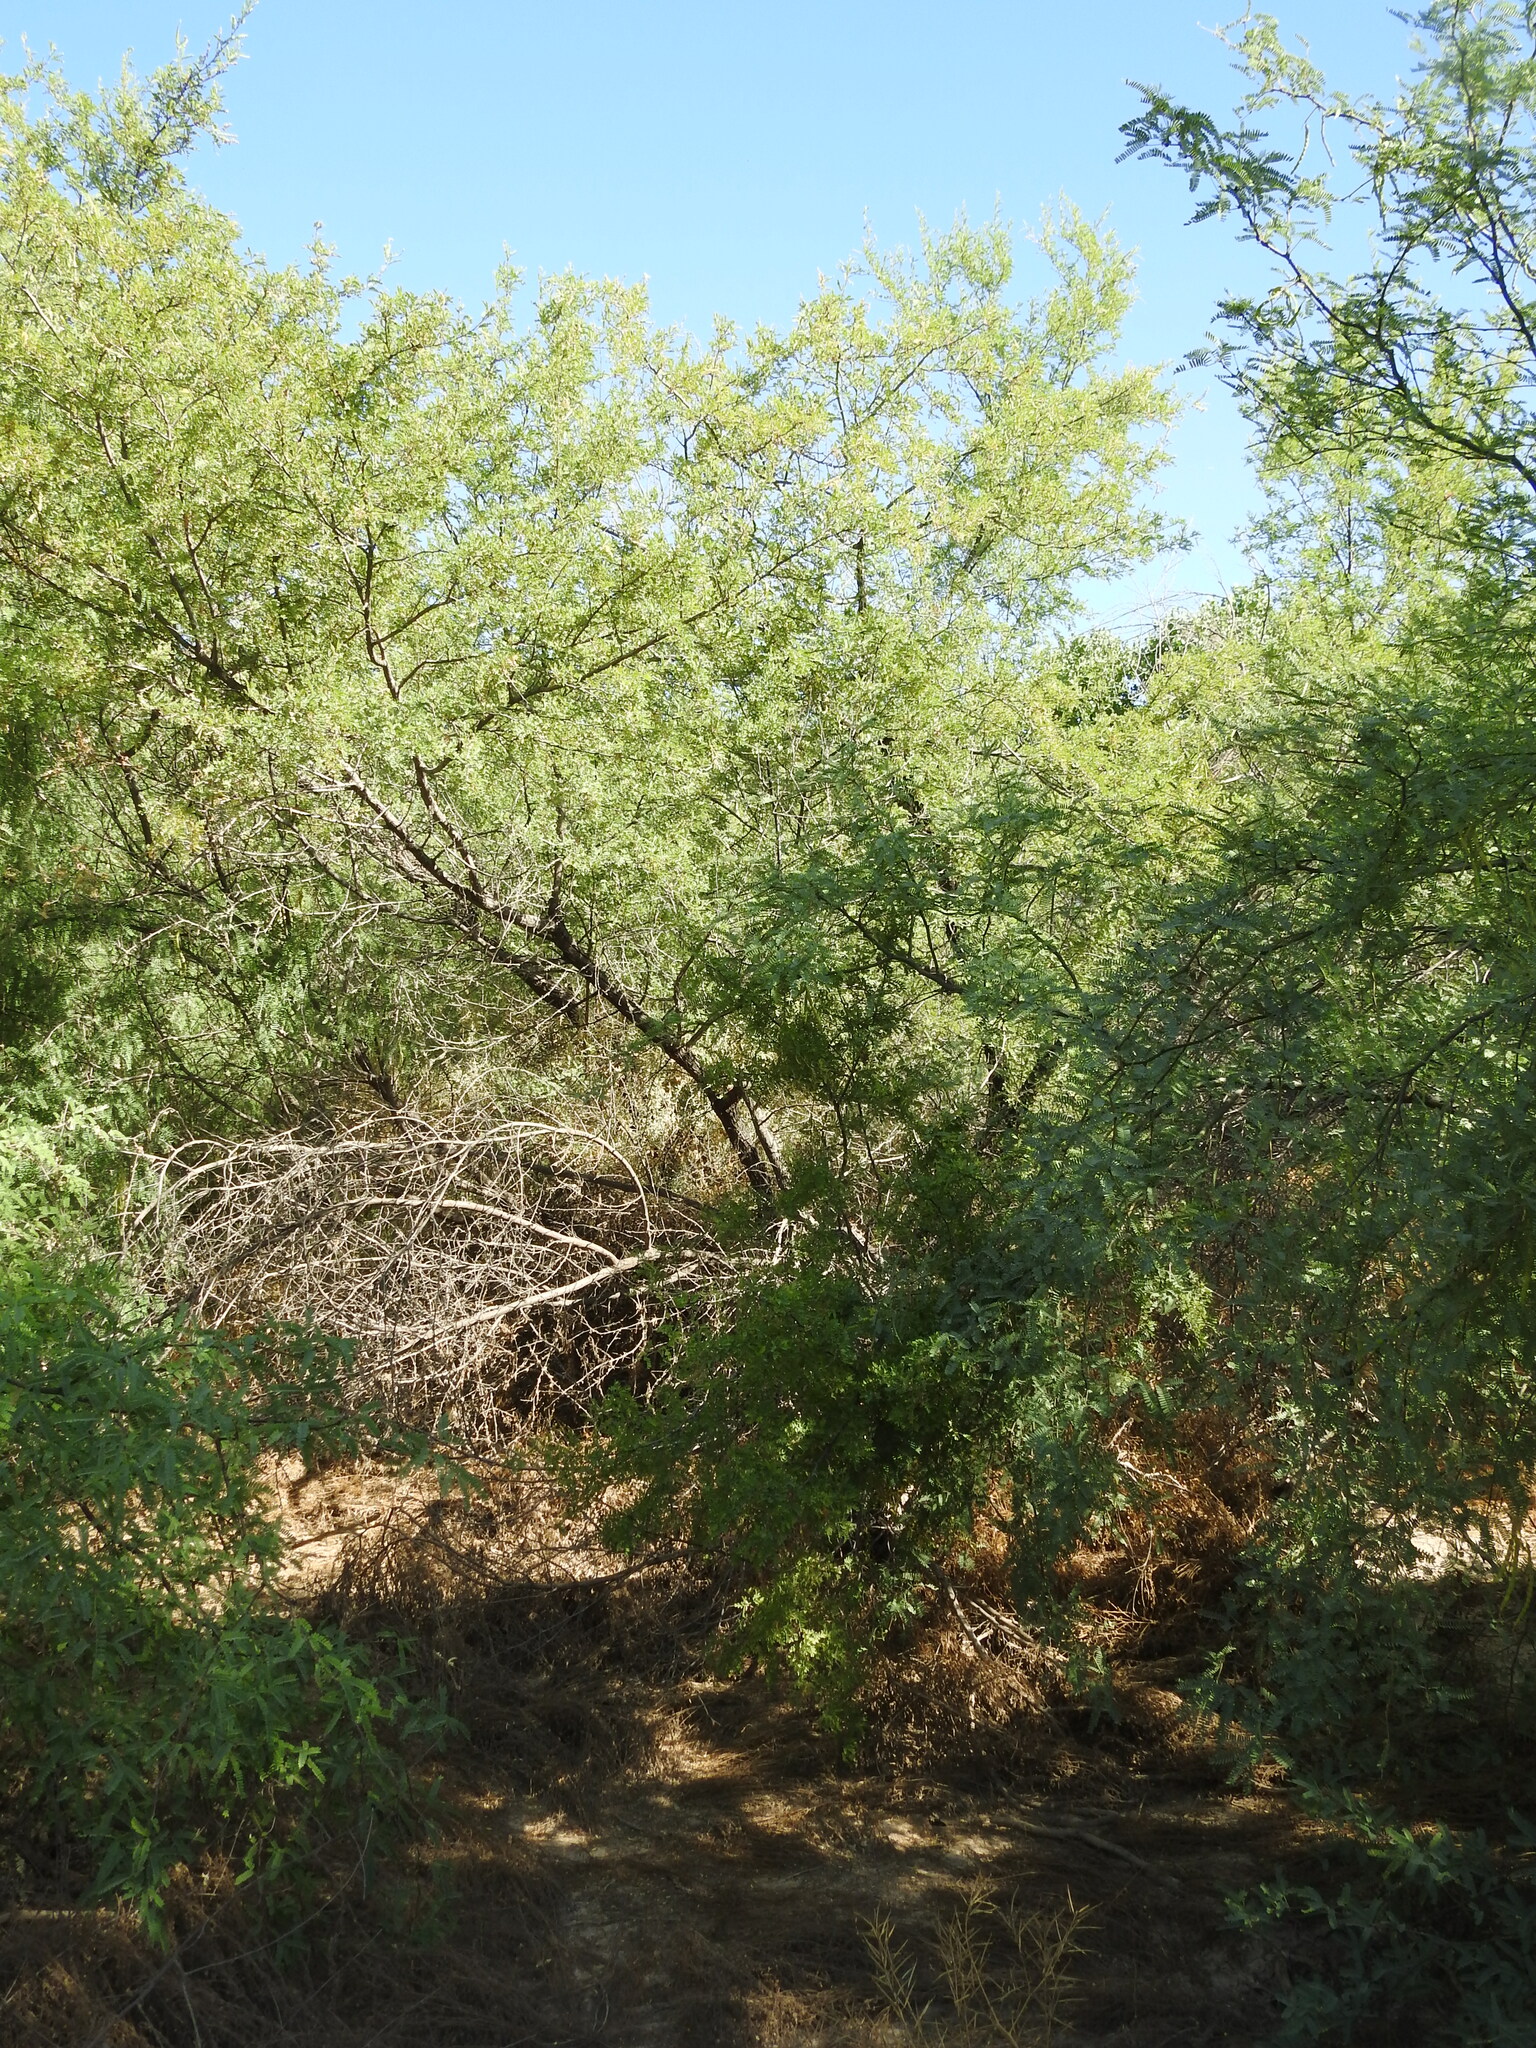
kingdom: Plantae
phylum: Tracheophyta
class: Magnoliopsida
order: Fabales
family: Fabaceae
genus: Prosopis
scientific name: Prosopis pubescens
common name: Screw-bean
